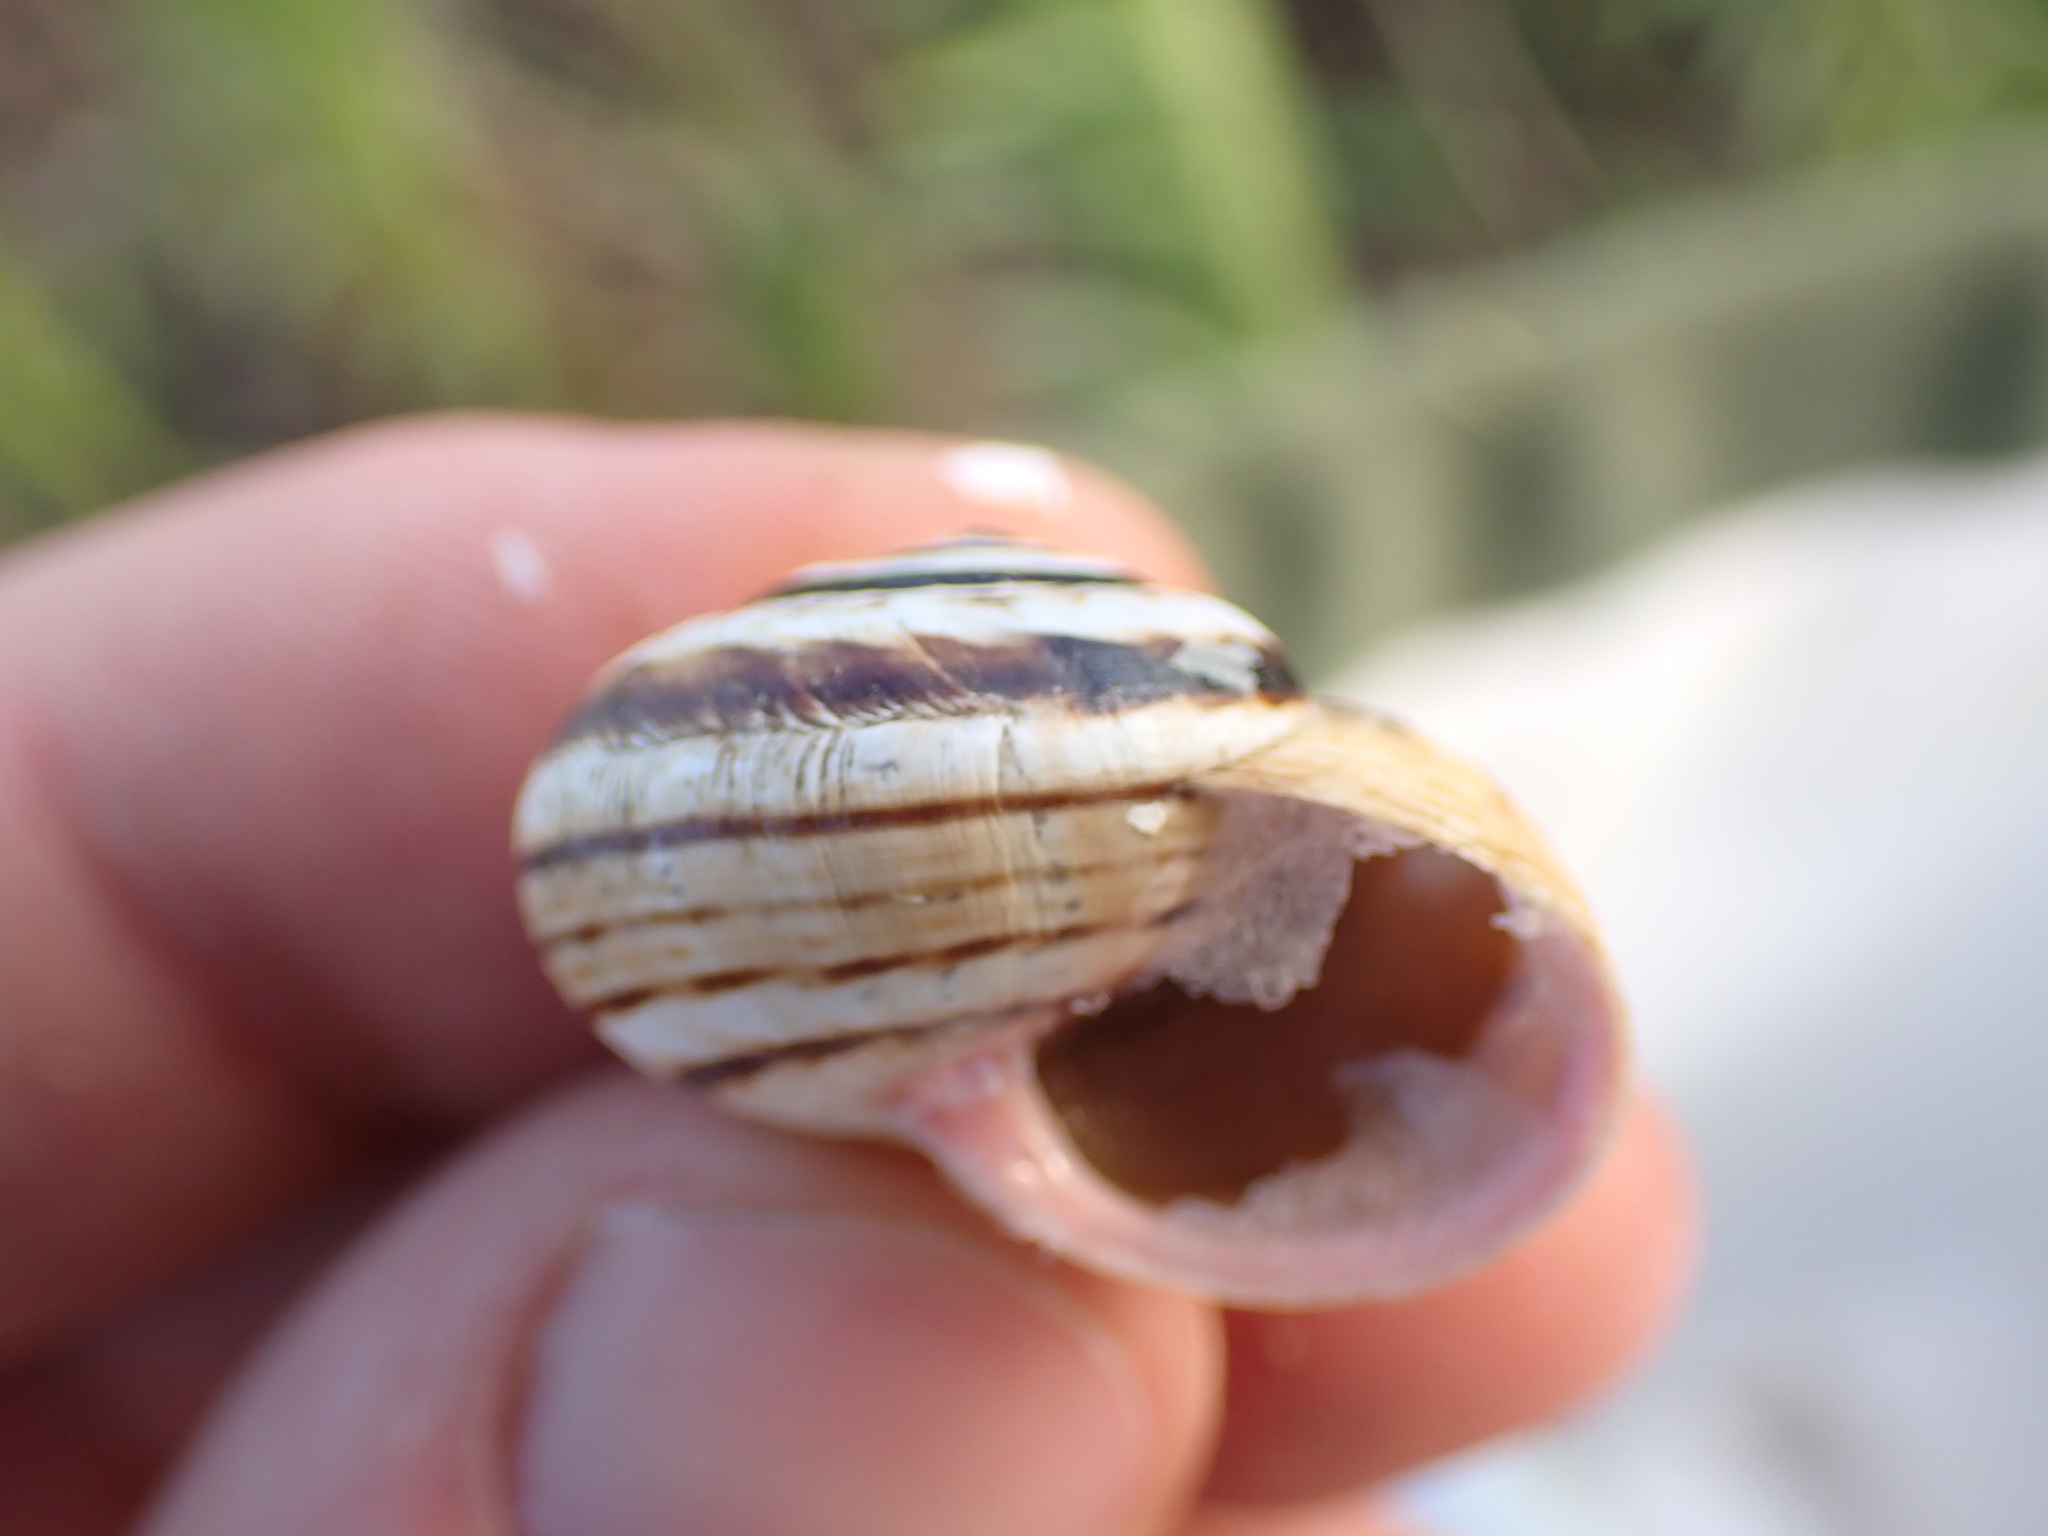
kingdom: Animalia
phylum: Mollusca
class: Gastropoda
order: Stylommatophora
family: Helicidae
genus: Theba
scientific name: Theba pisana
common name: White snail
